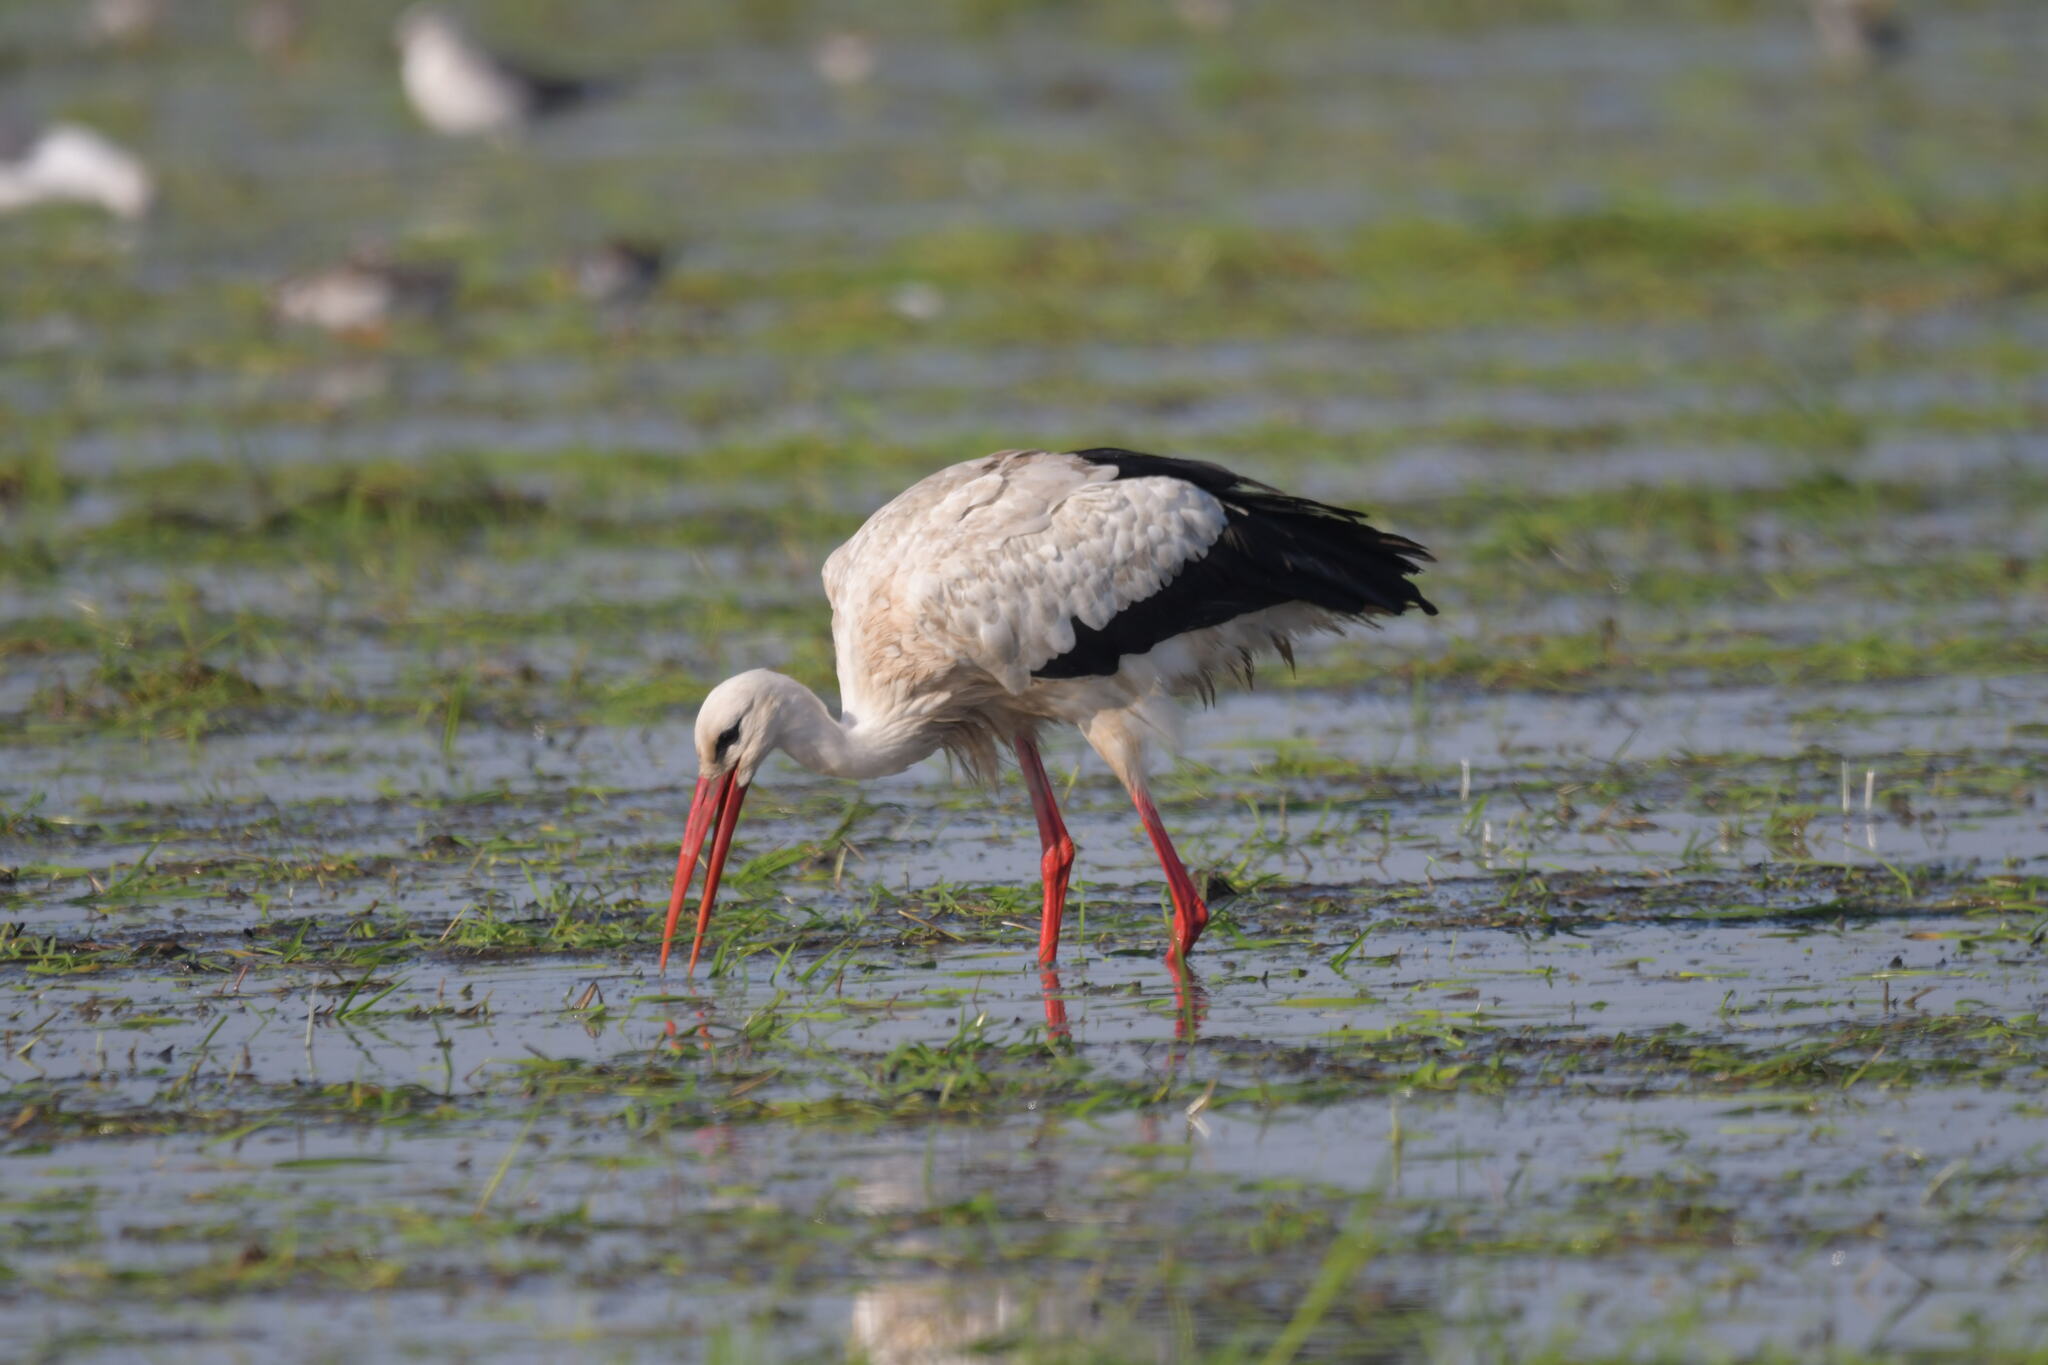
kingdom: Animalia
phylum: Chordata
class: Aves
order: Ciconiiformes
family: Ciconiidae
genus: Ciconia
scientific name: Ciconia ciconia
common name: White stork
